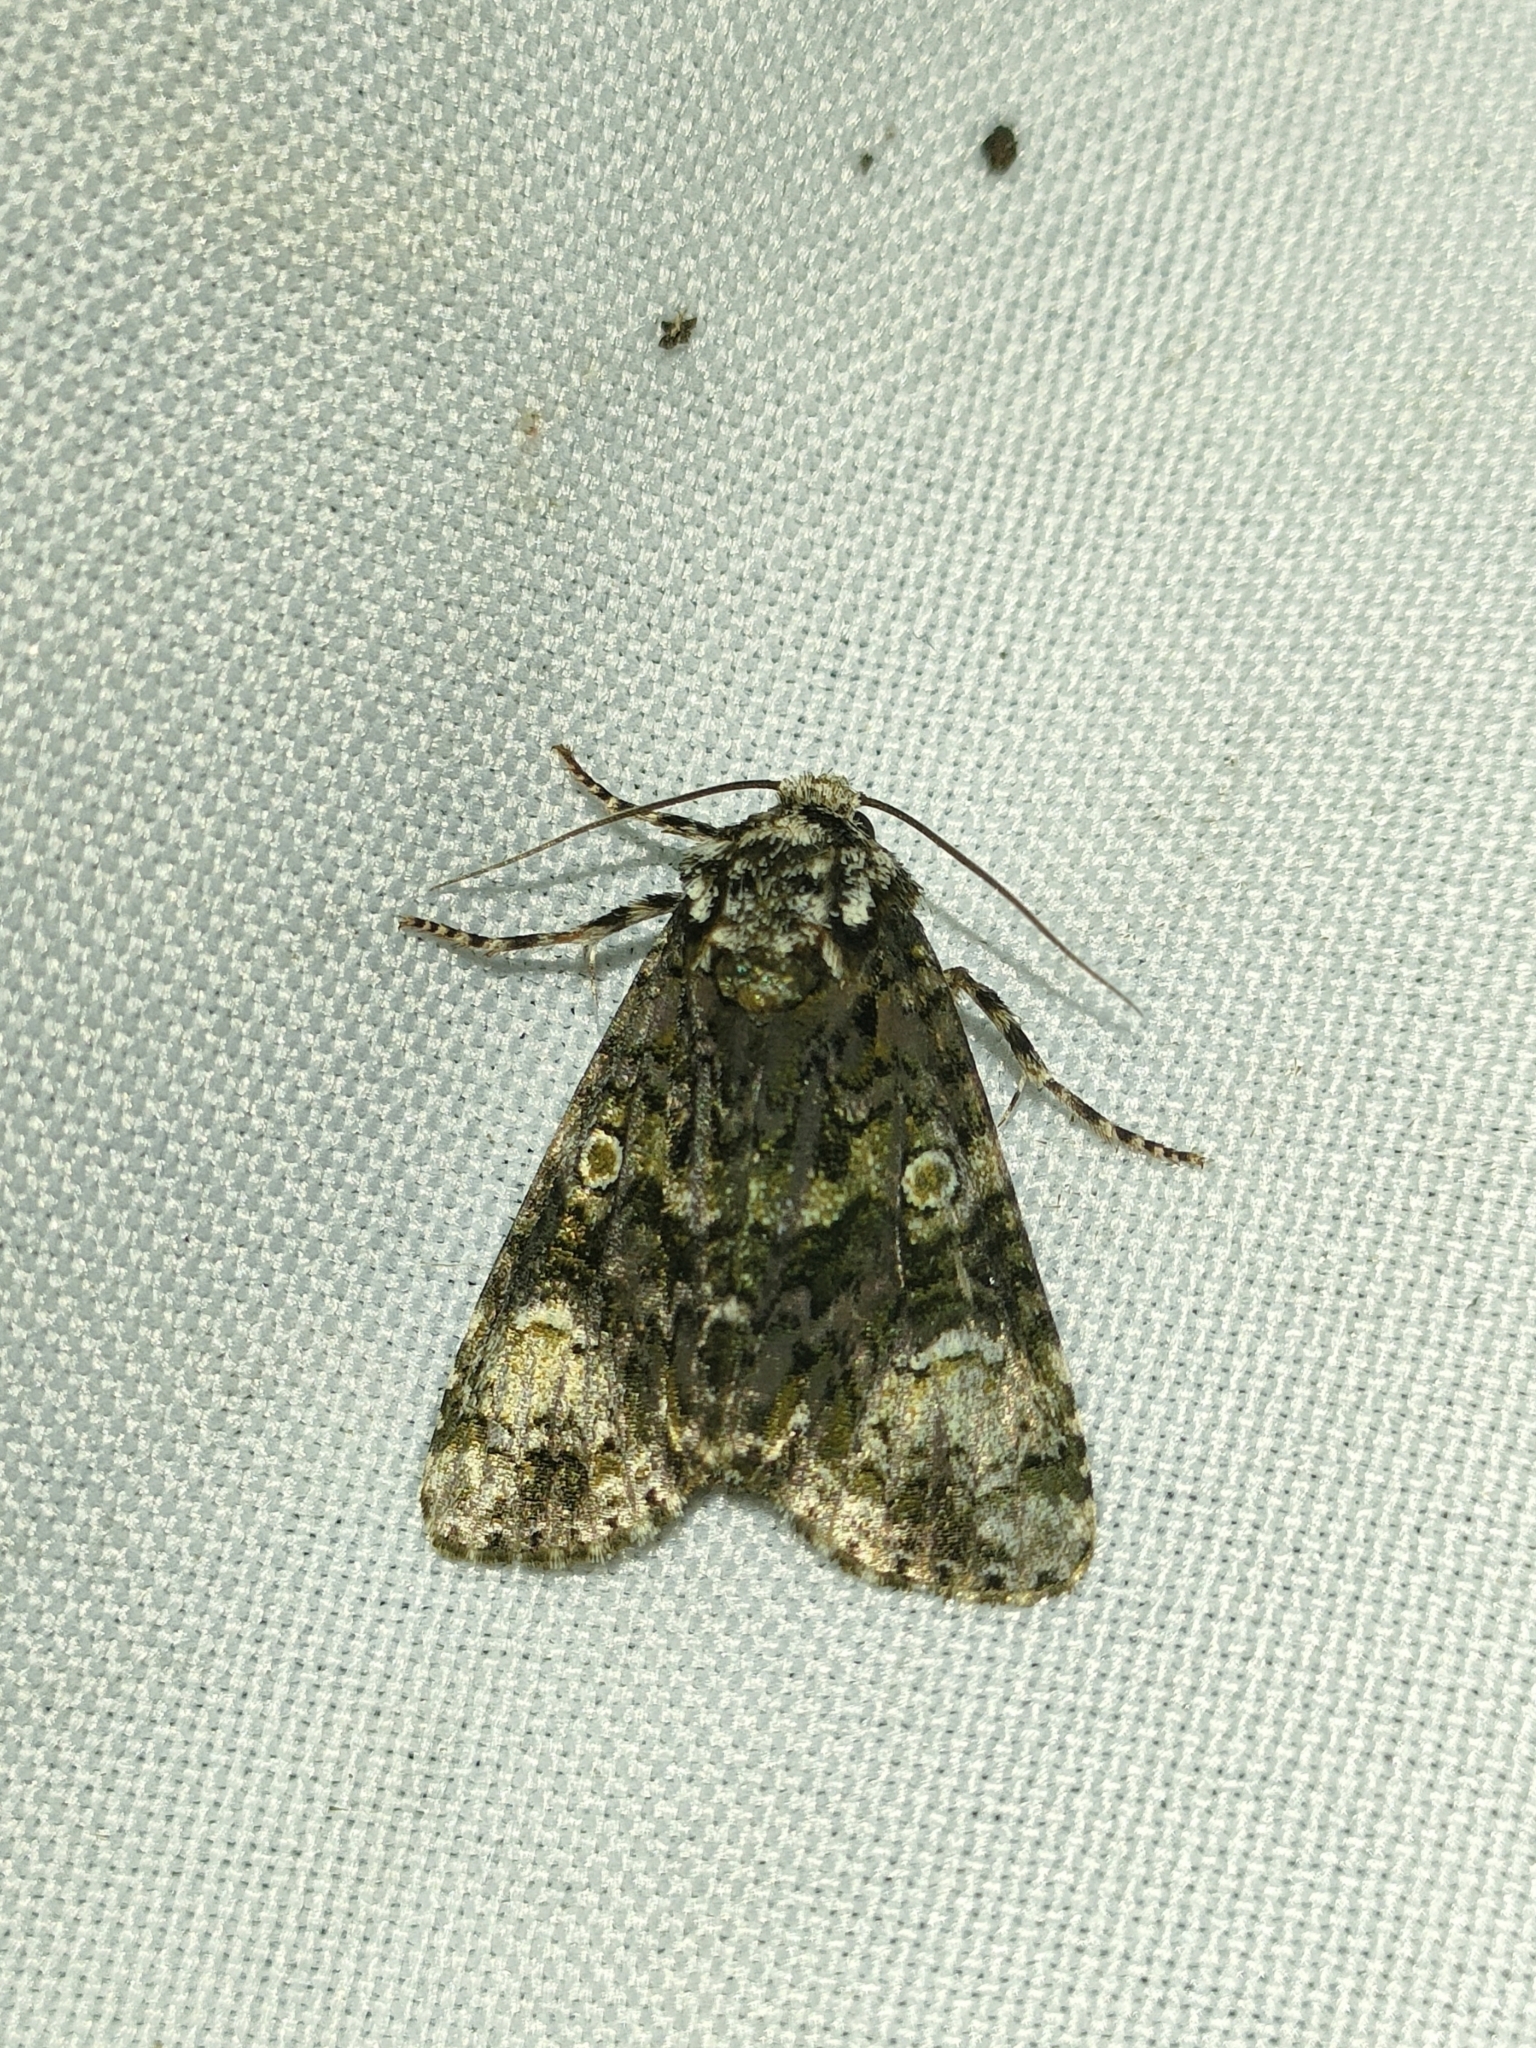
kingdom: Animalia
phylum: Arthropoda
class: Insecta
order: Lepidoptera
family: Noctuidae
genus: Craniophora
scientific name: Craniophora ligustri
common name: Coronet
